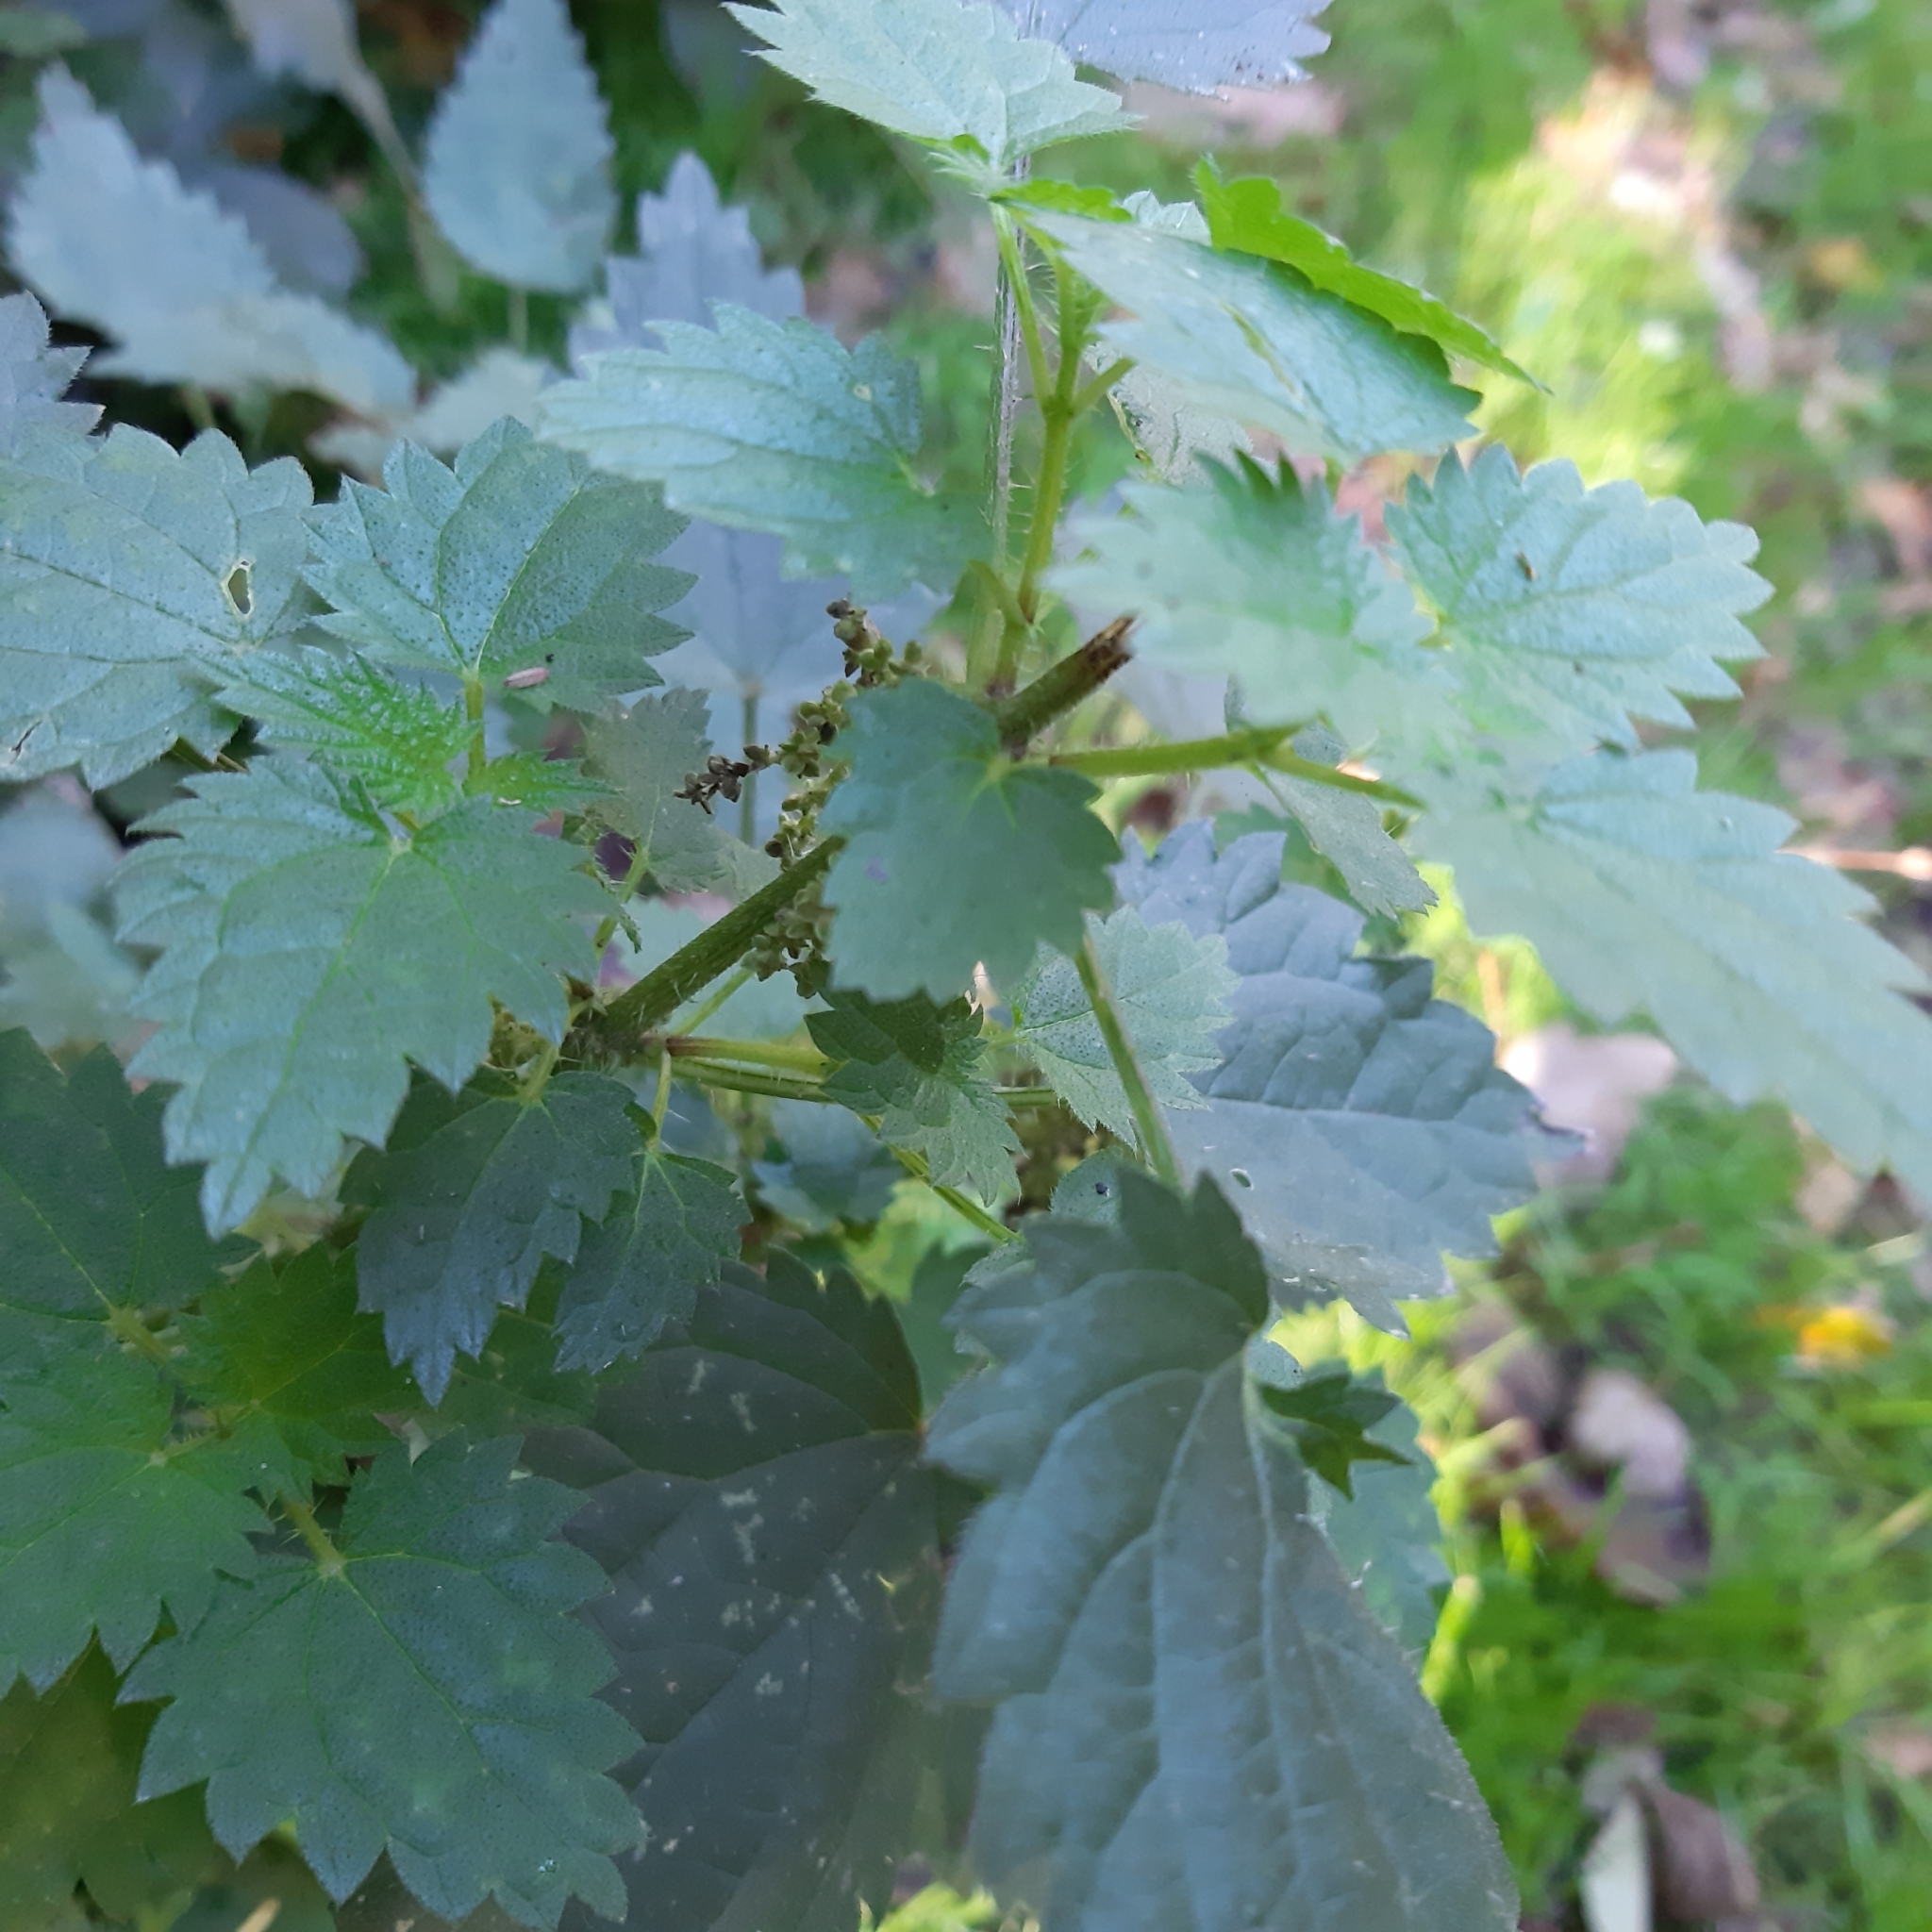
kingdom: Plantae
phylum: Tracheophyta
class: Magnoliopsida
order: Rosales
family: Urticaceae
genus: Urtica
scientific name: Urtica dioica
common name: Common nettle
